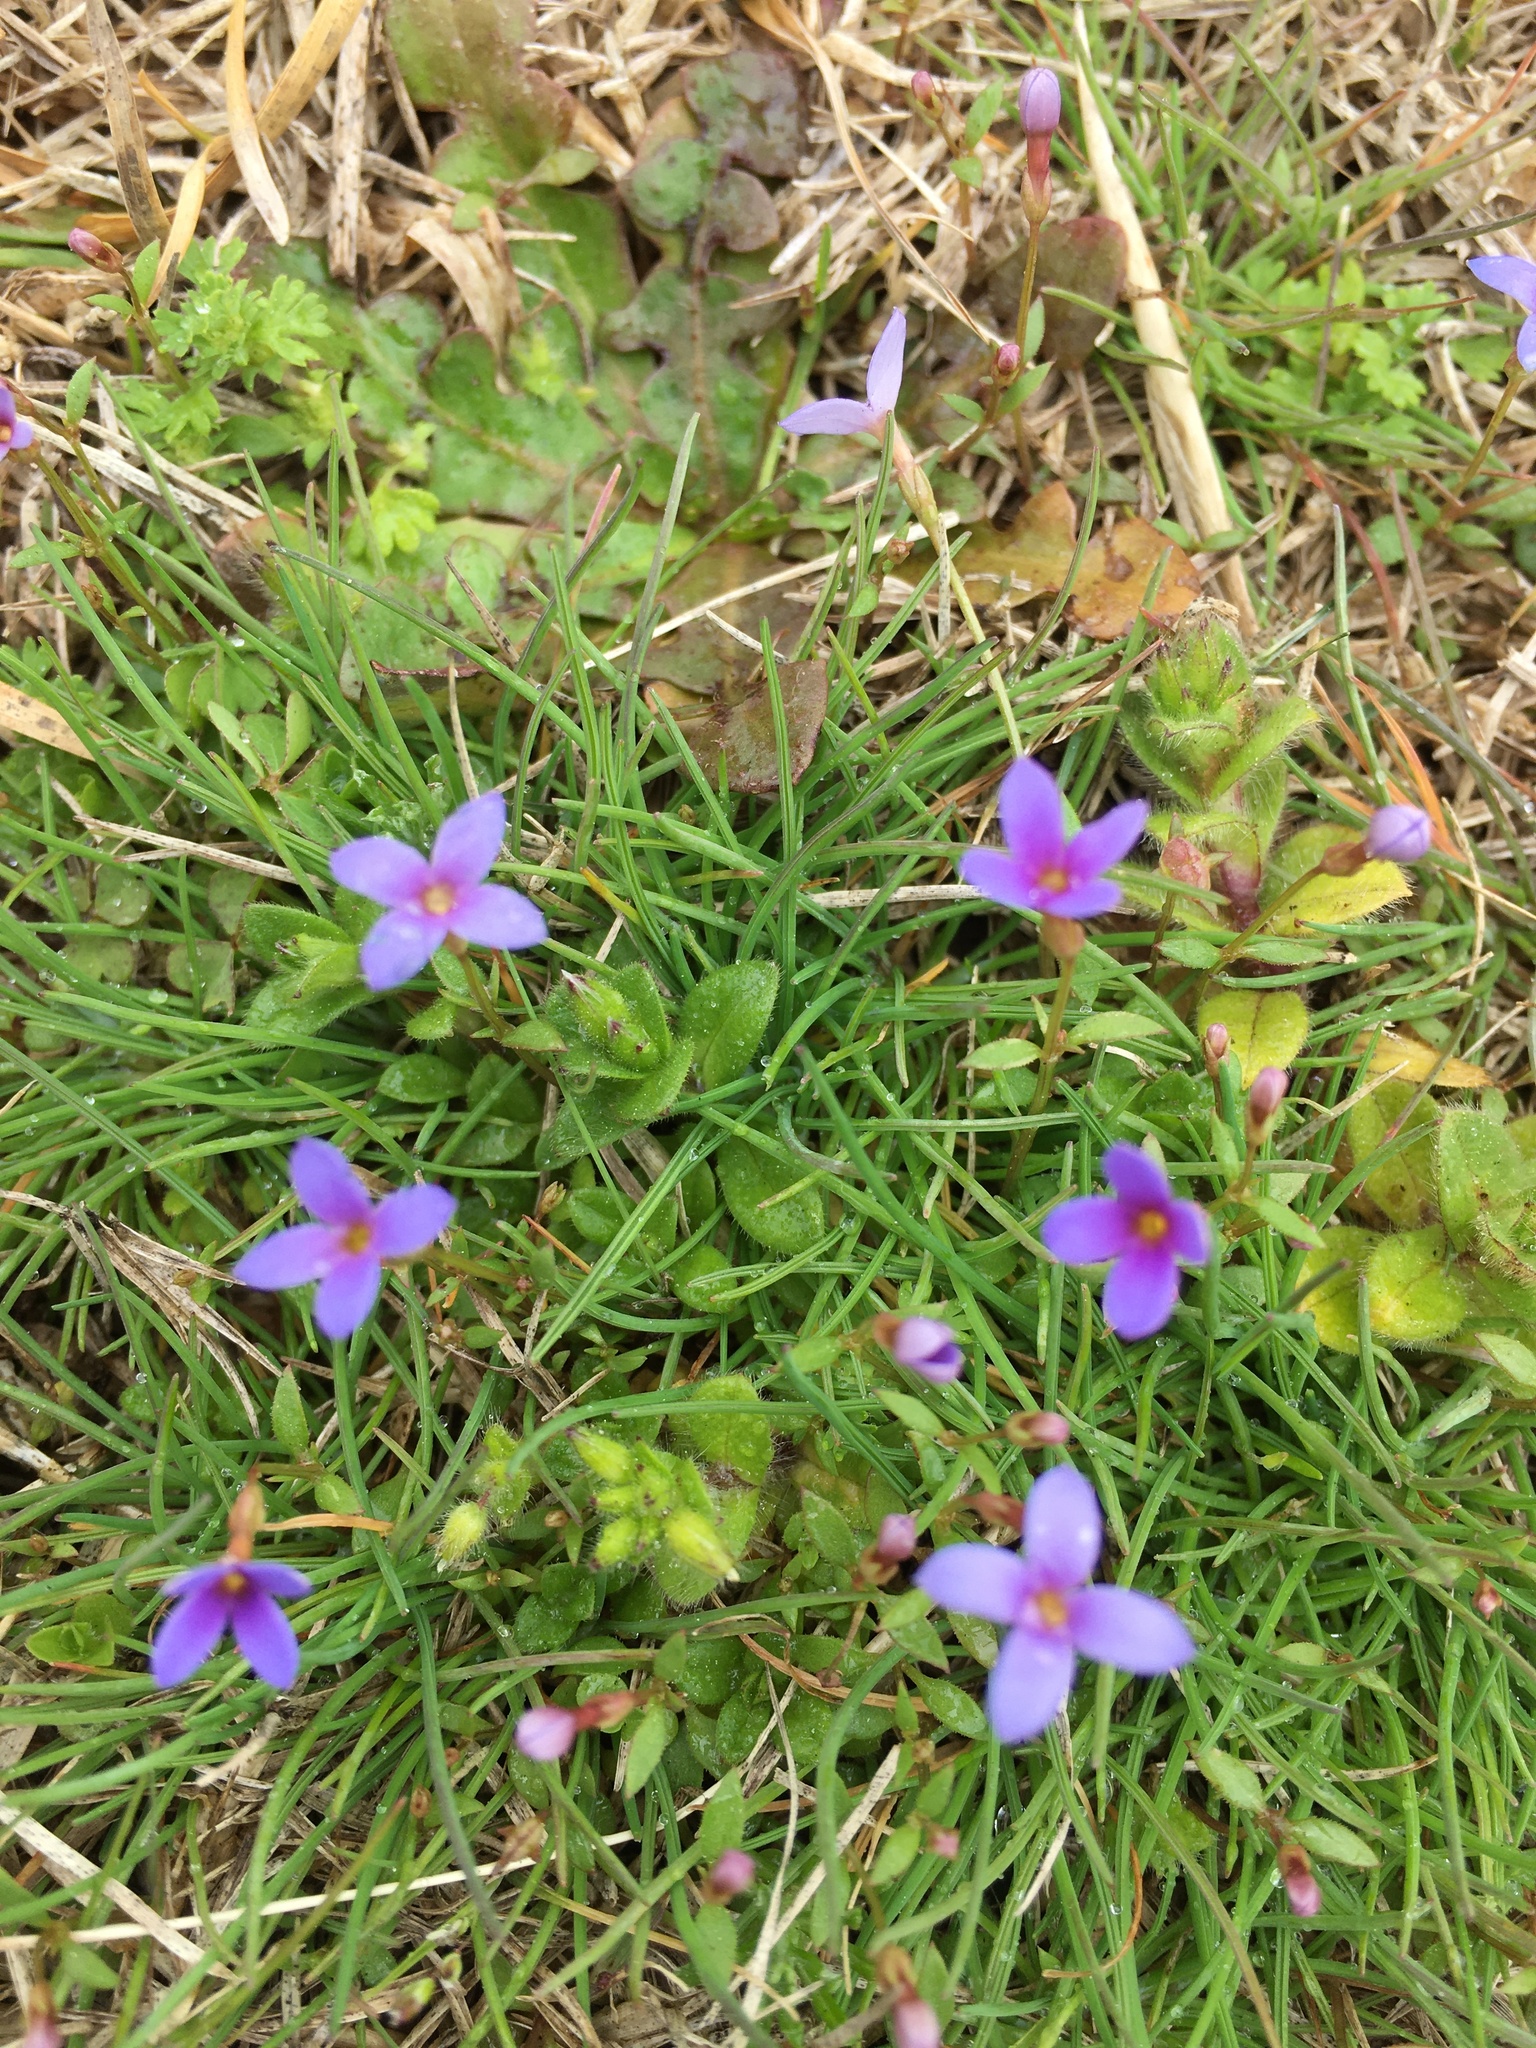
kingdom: Plantae
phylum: Tracheophyta
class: Magnoliopsida
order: Gentianales
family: Rubiaceae
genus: Houstonia
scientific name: Houstonia pusilla
